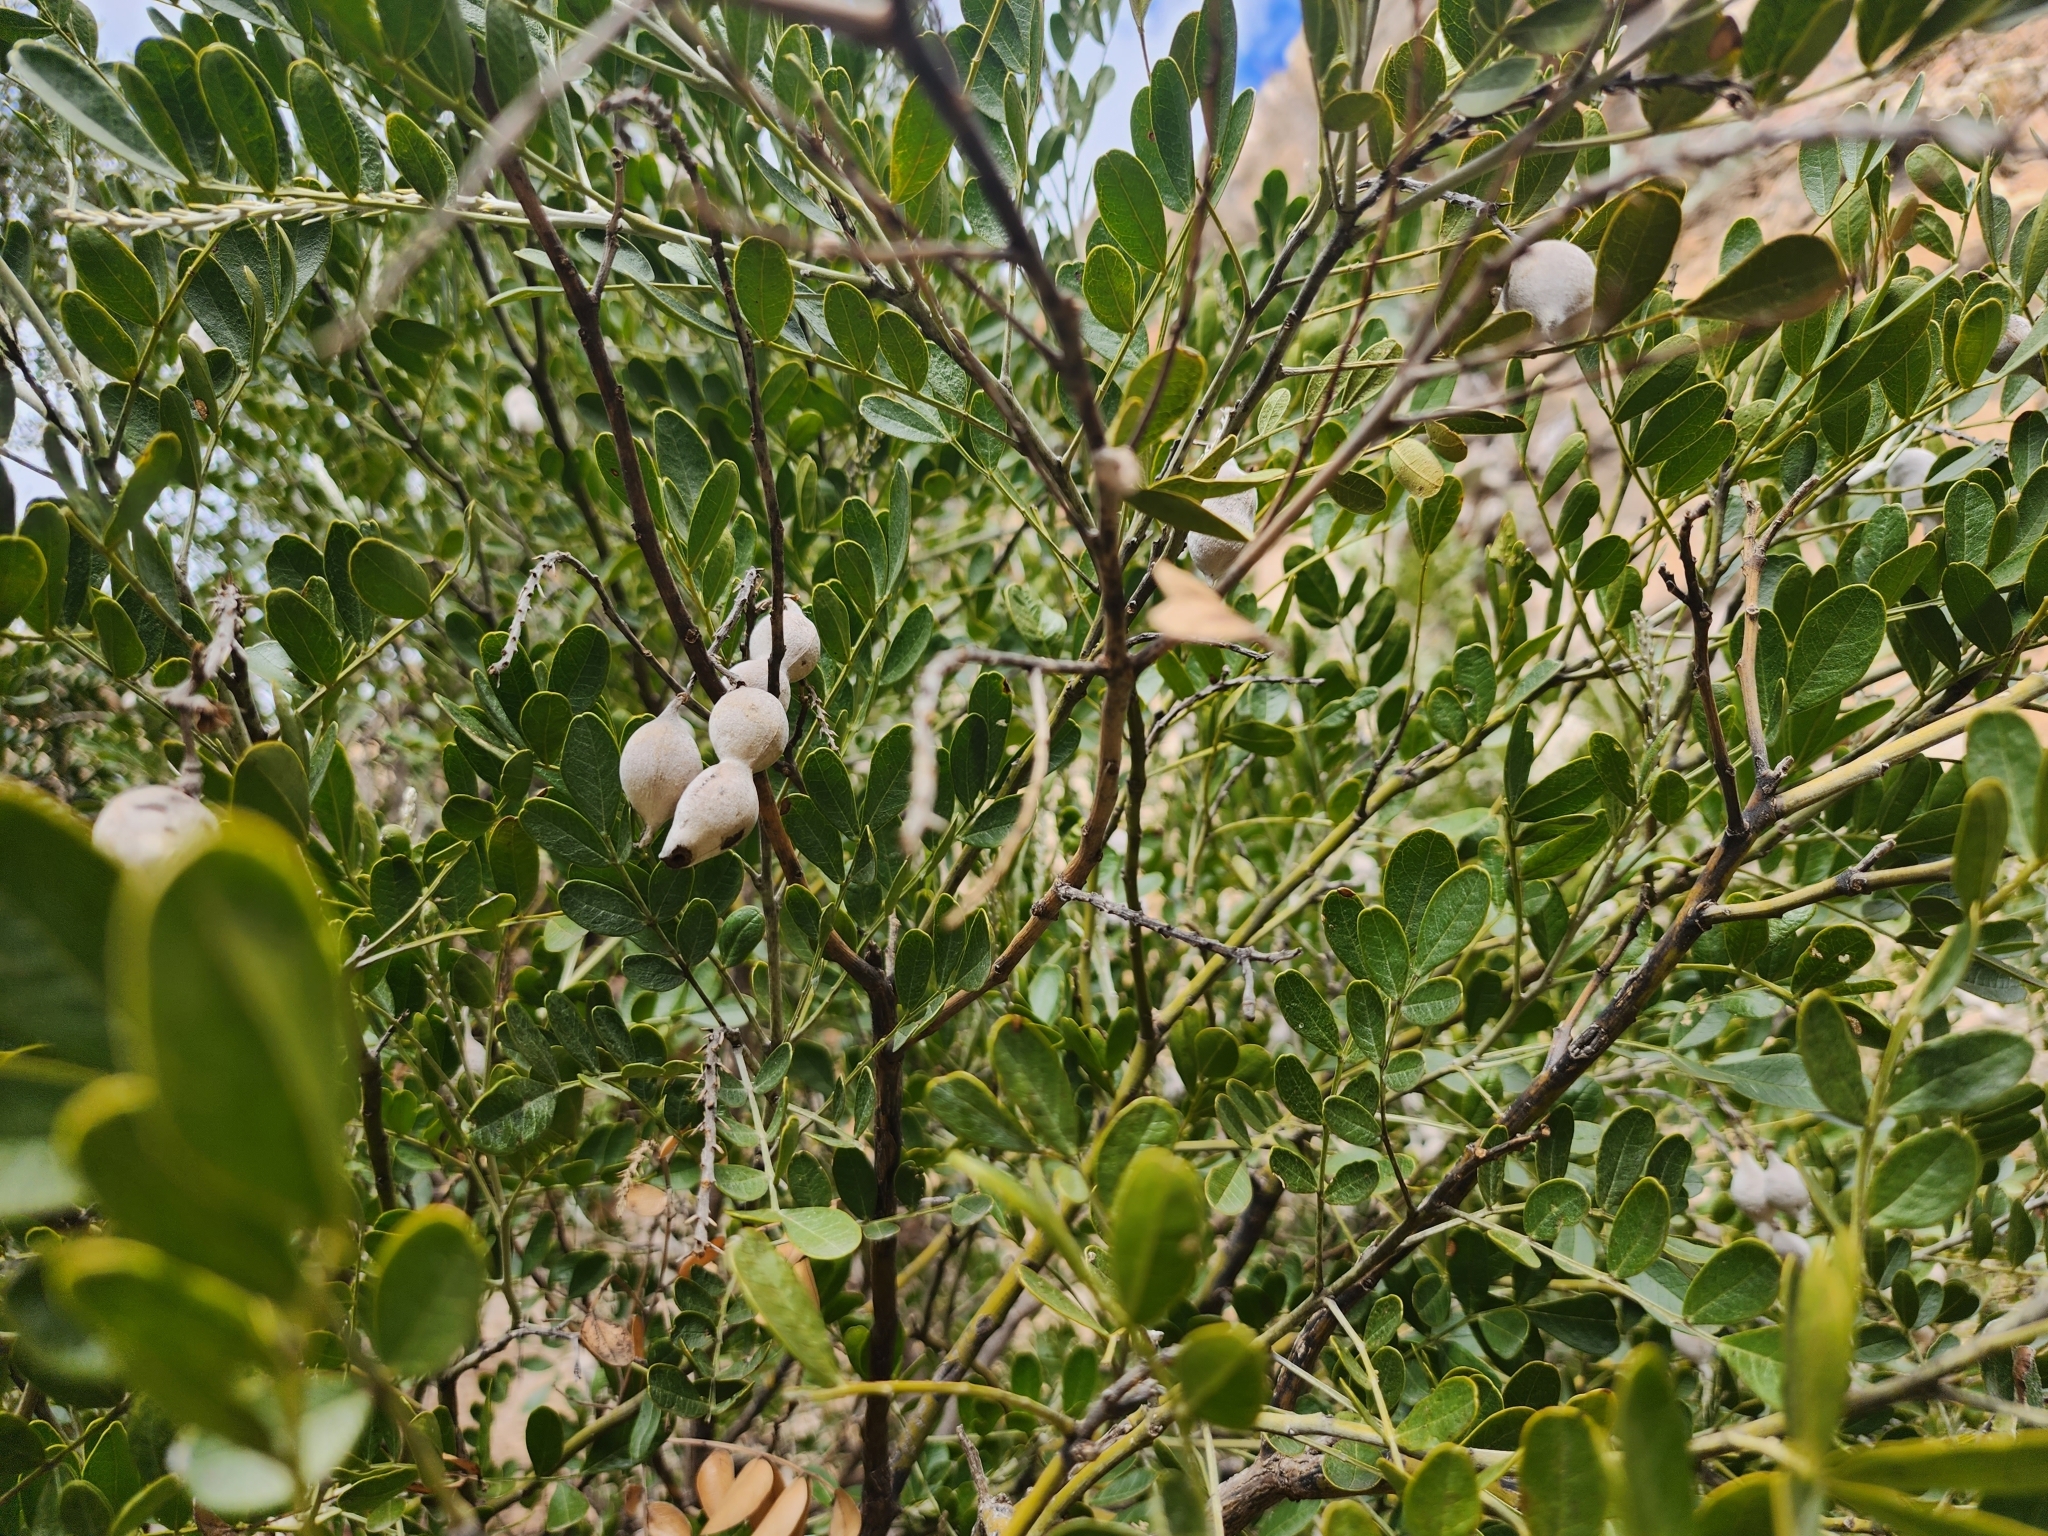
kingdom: Plantae
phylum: Tracheophyta
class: Magnoliopsida
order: Fabales
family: Fabaceae
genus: Dermatophyllum
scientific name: Dermatophyllum secundiflorum
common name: Texas-mountain-laurel
